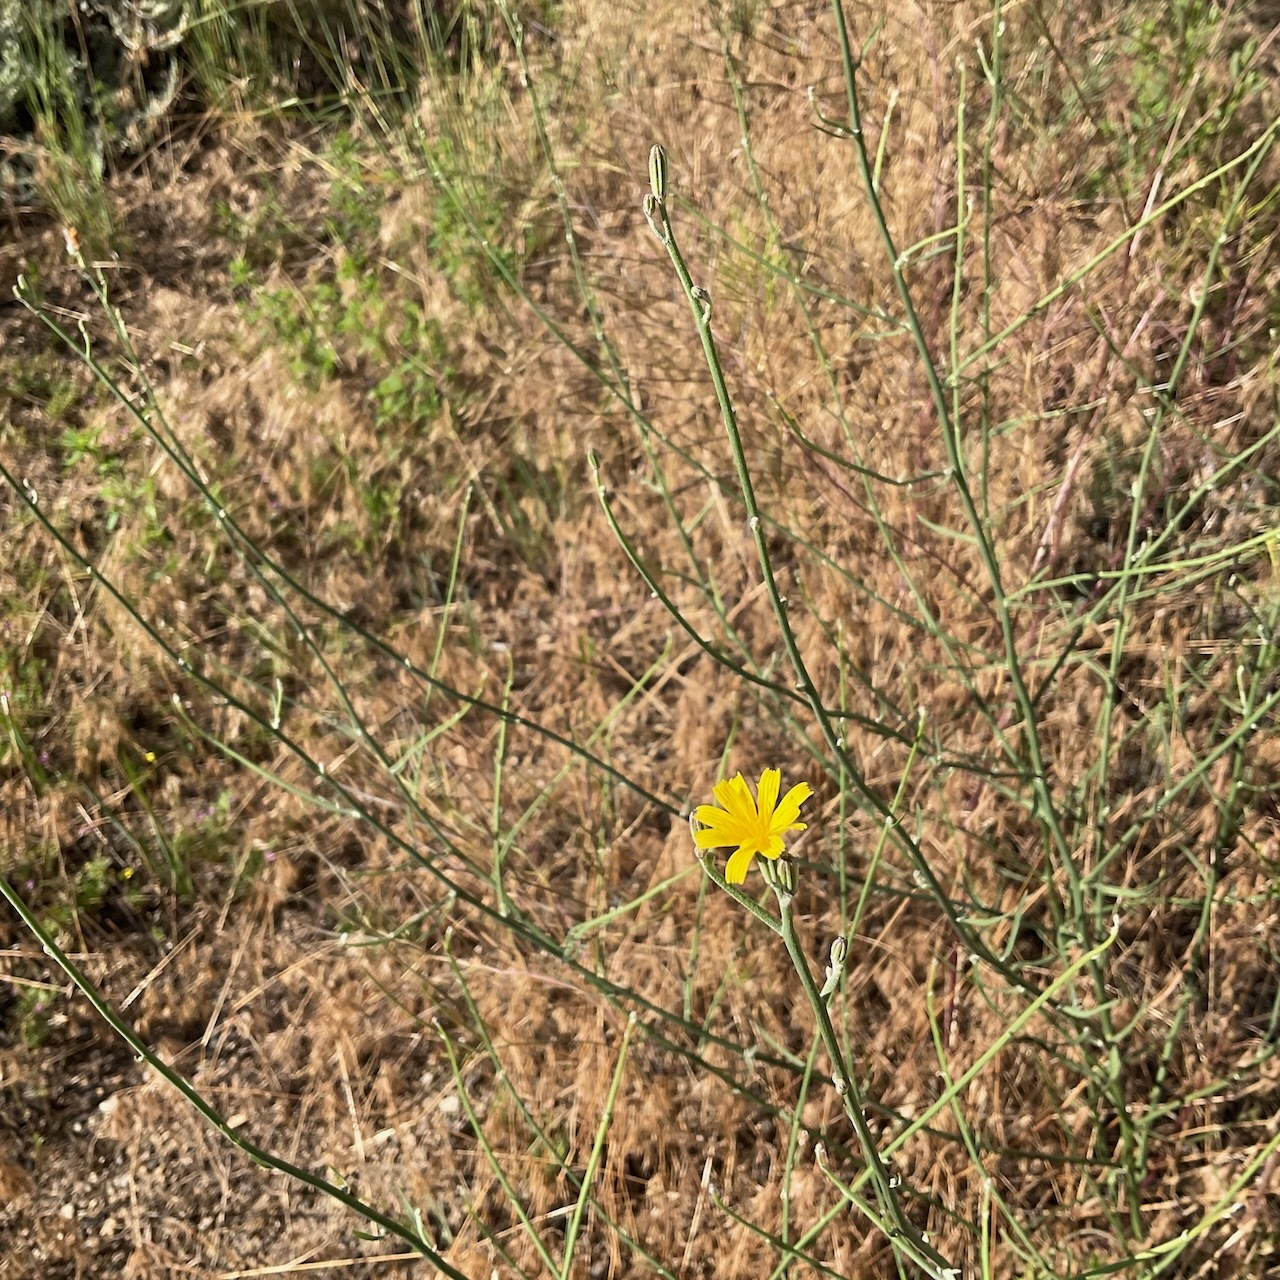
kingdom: Plantae
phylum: Tracheophyta
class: Magnoliopsida
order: Asterales
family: Asteraceae
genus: Chondrilla
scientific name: Chondrilla juncea
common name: Skeleton weed
